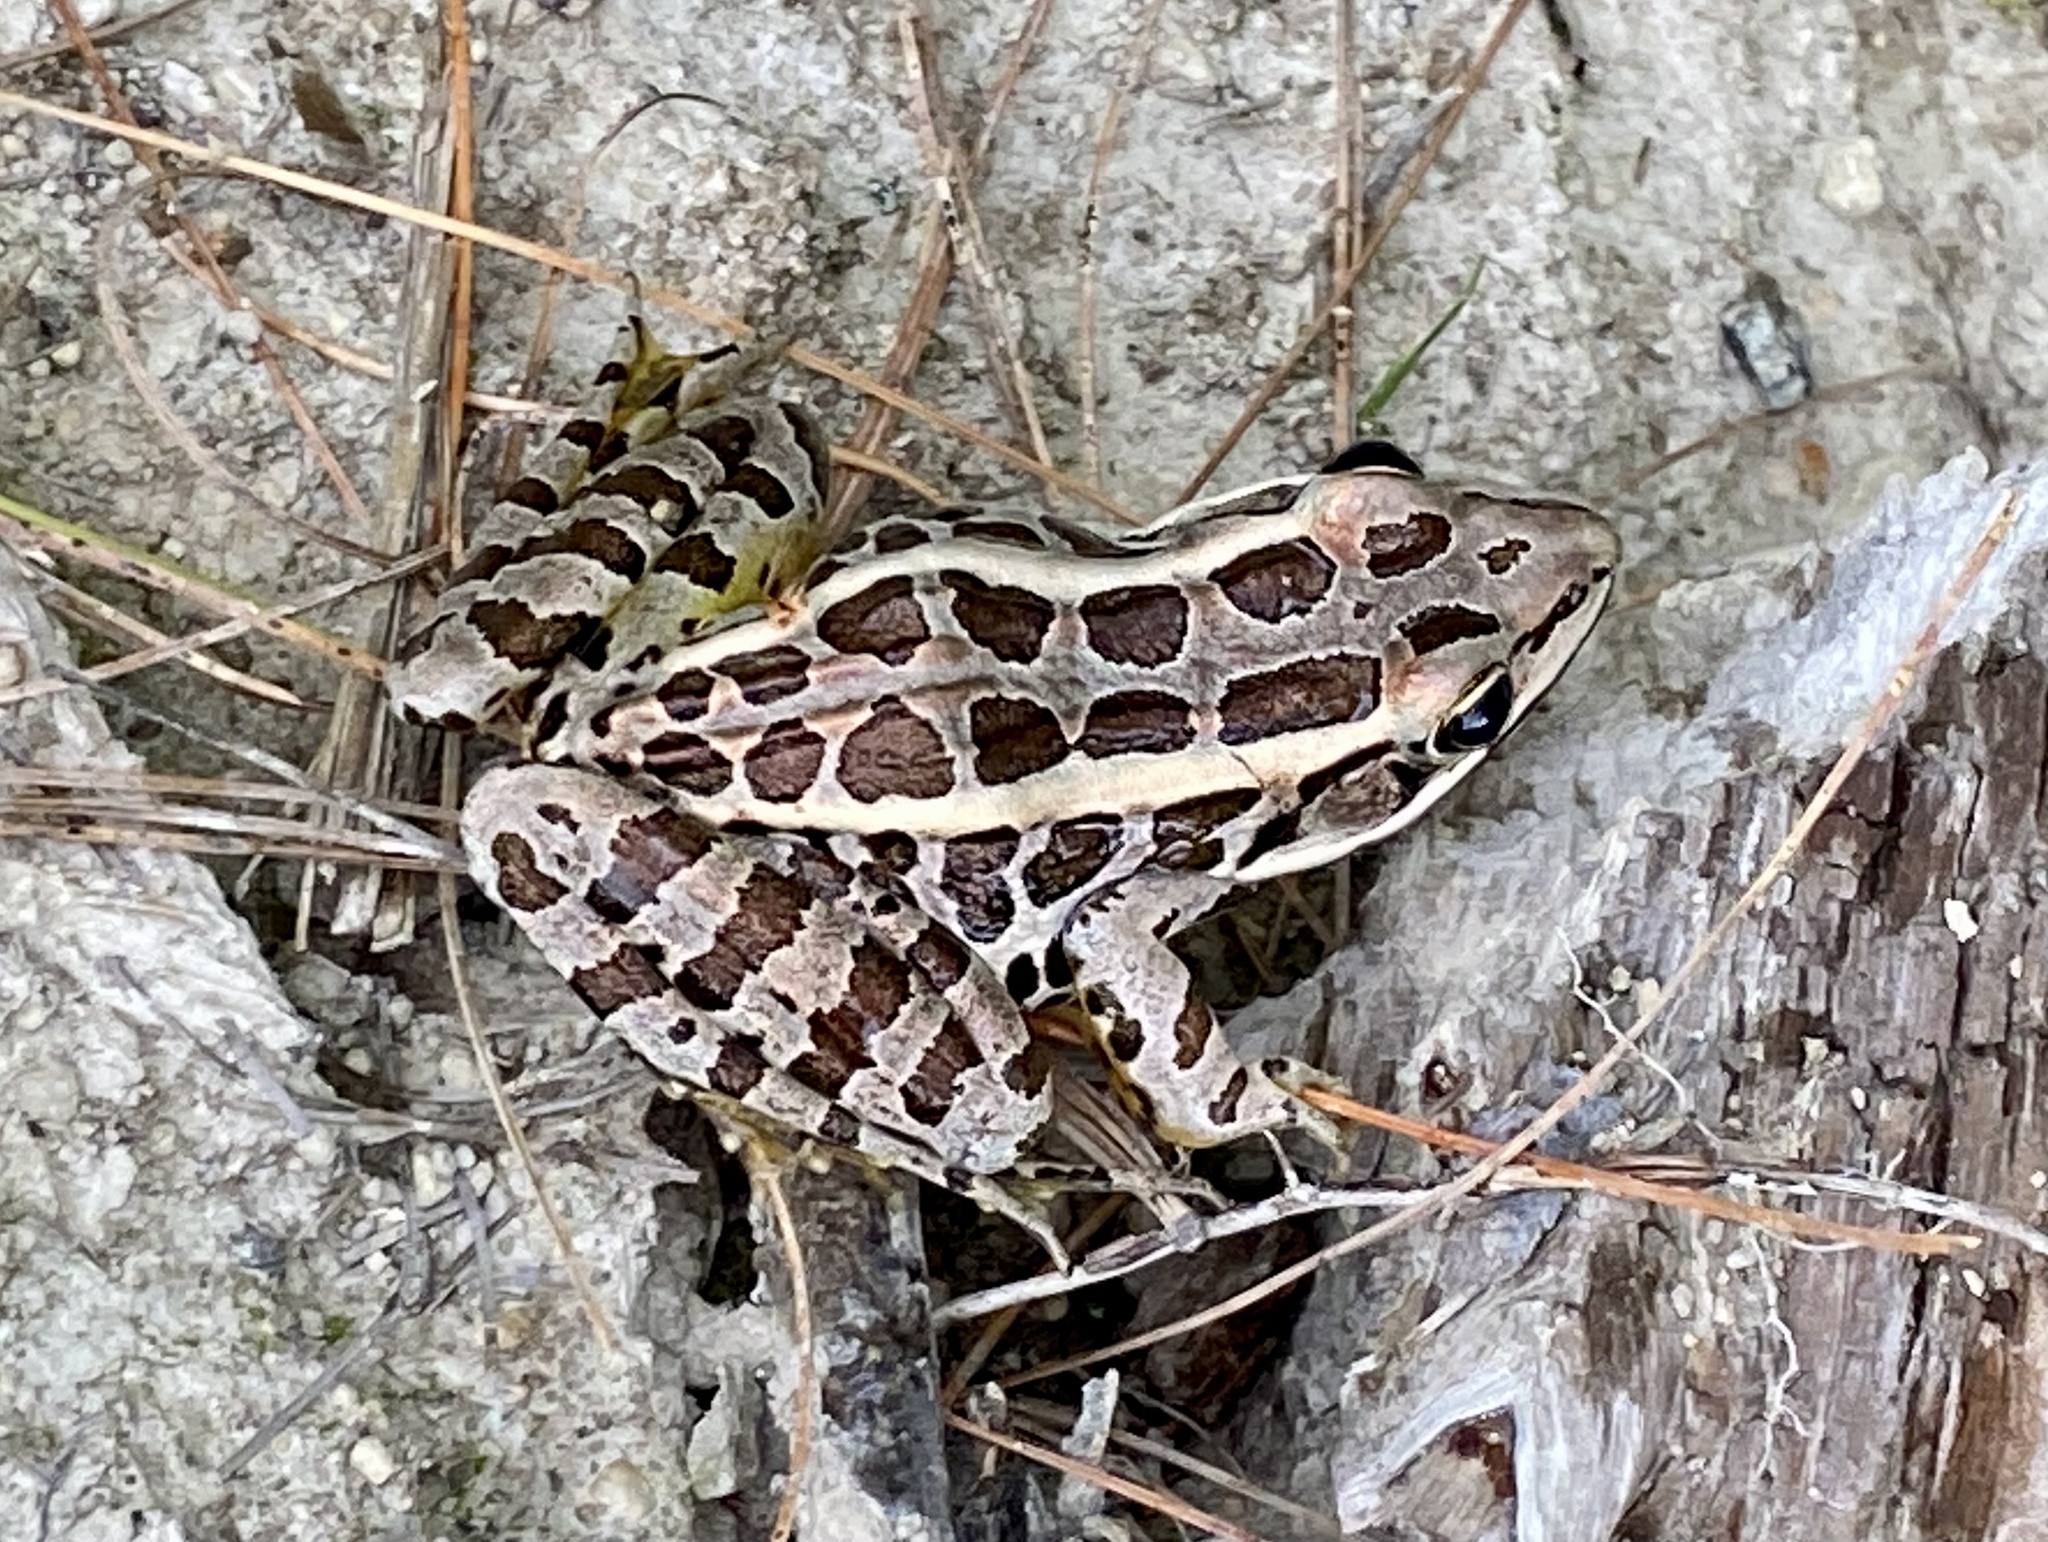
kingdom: Animalia
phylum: Chordata
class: Amphibia
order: Anura
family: Ranidae
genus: Lithobates
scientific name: Lithobates palustris
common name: Pickerel frog
